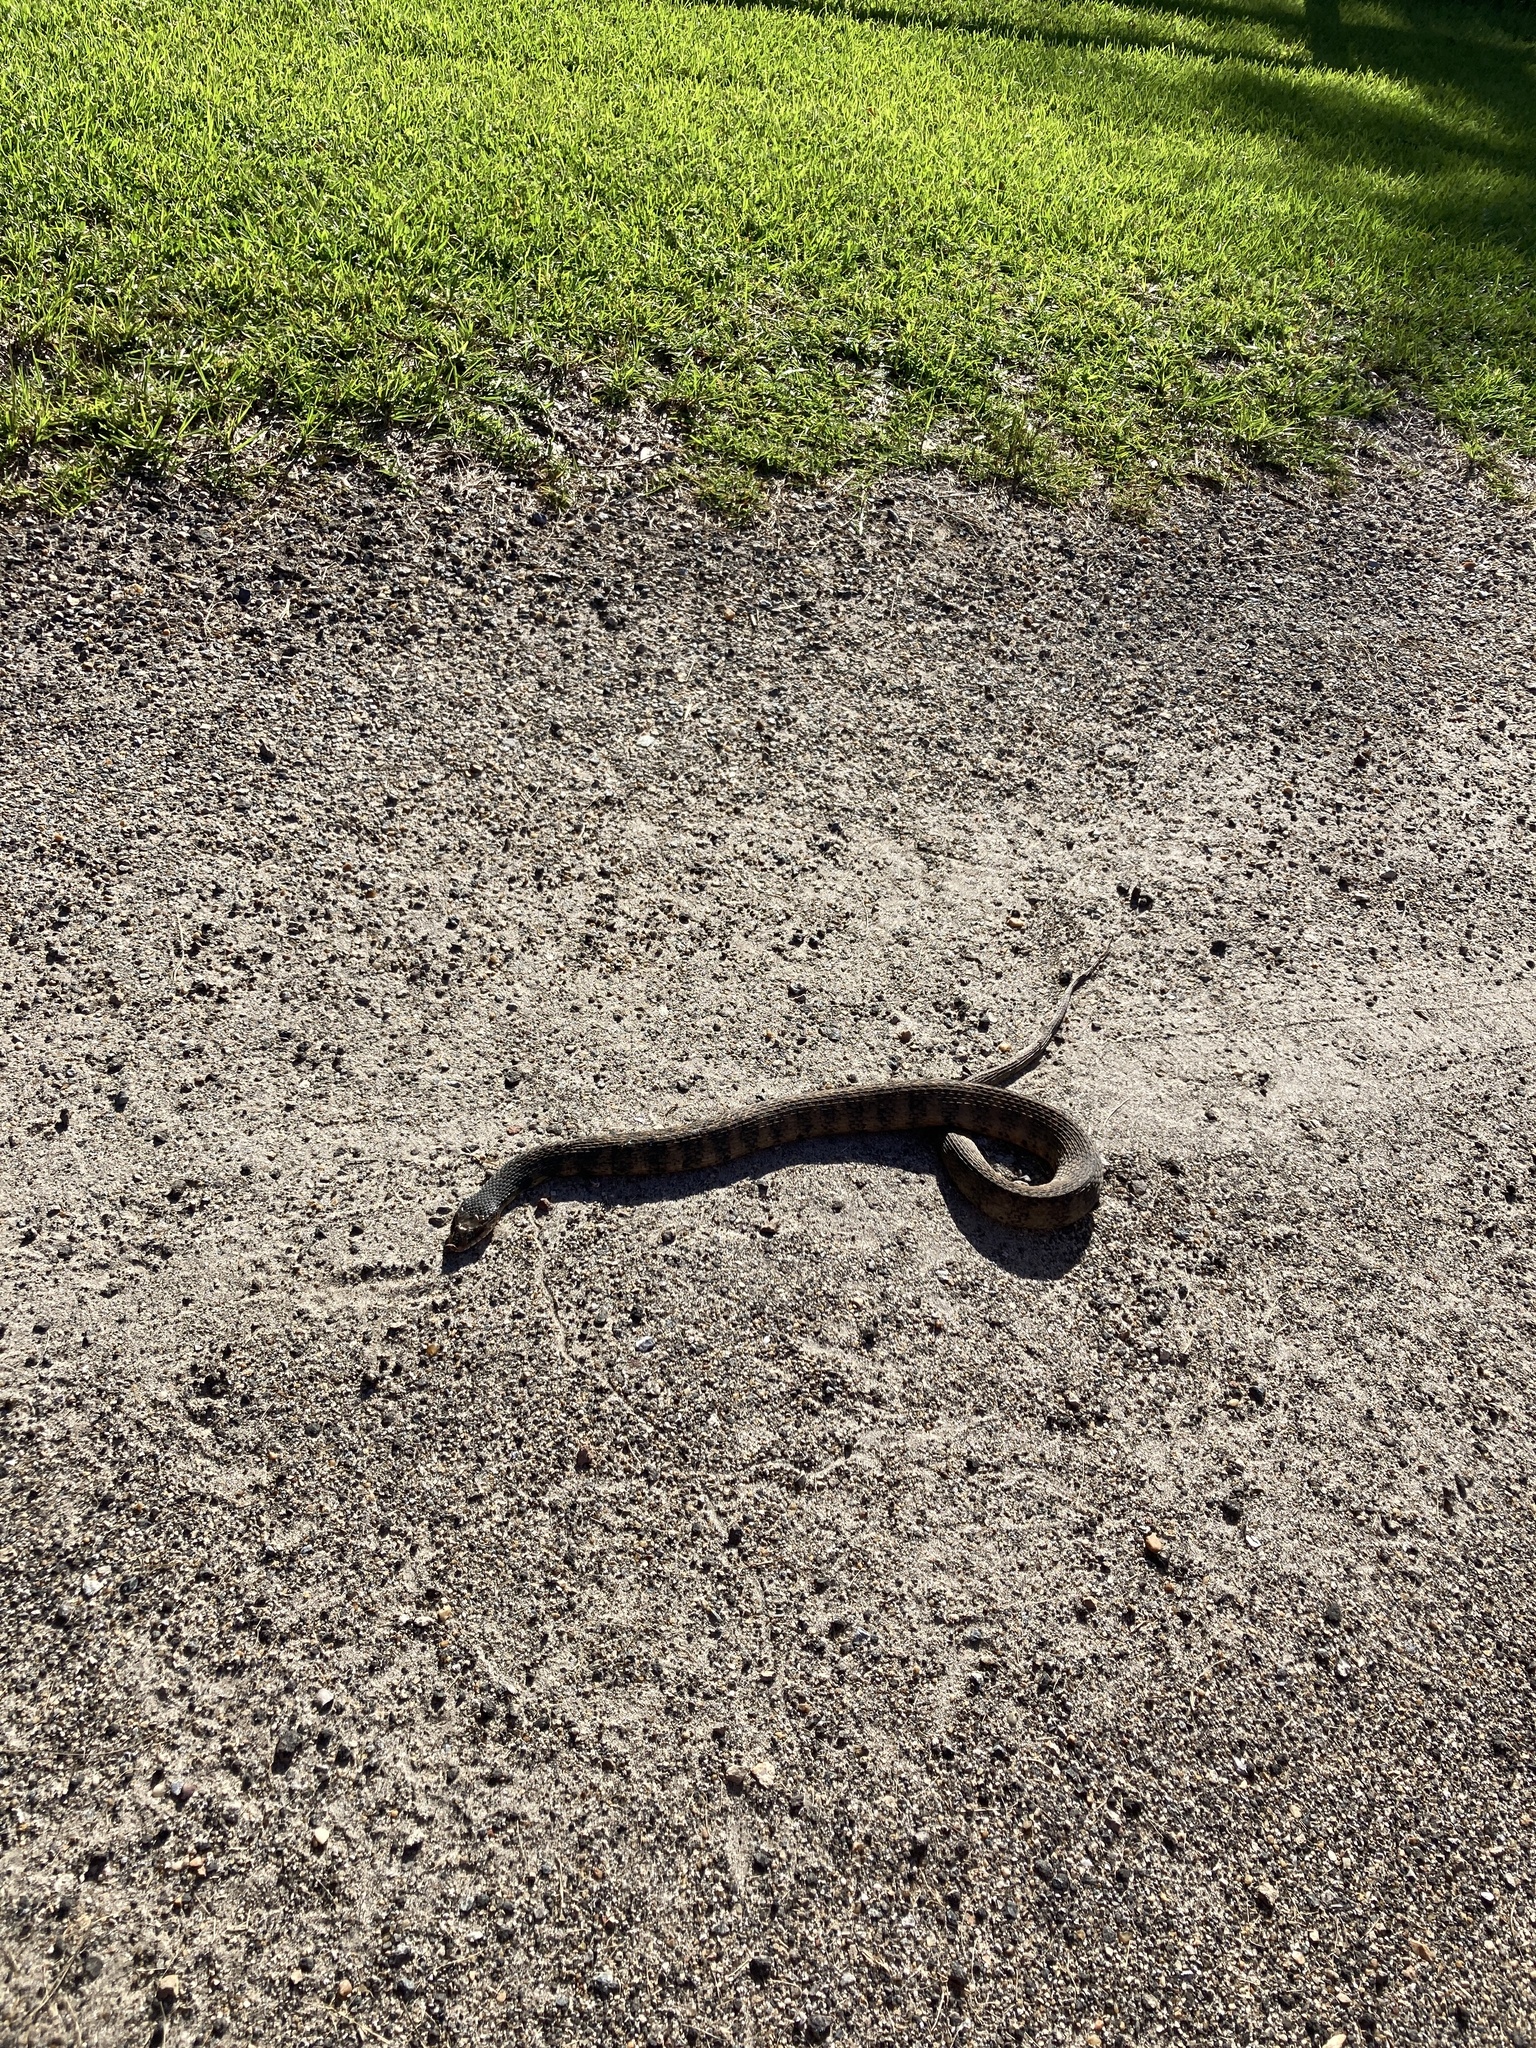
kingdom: Animalia
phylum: Chordata
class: Squamata
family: Colubridae
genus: Nerodia
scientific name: Nerodia fasciata
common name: Southern water snake
